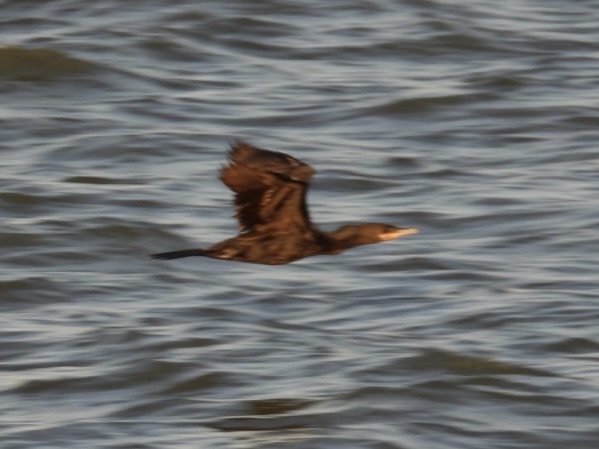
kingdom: Animalia
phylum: Chordata
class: Aves
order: Suliformes
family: Phalacrocoracidae
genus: Phalacrocorax
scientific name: Phalacrocorax brasilianus
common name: Neotropic cormorant
